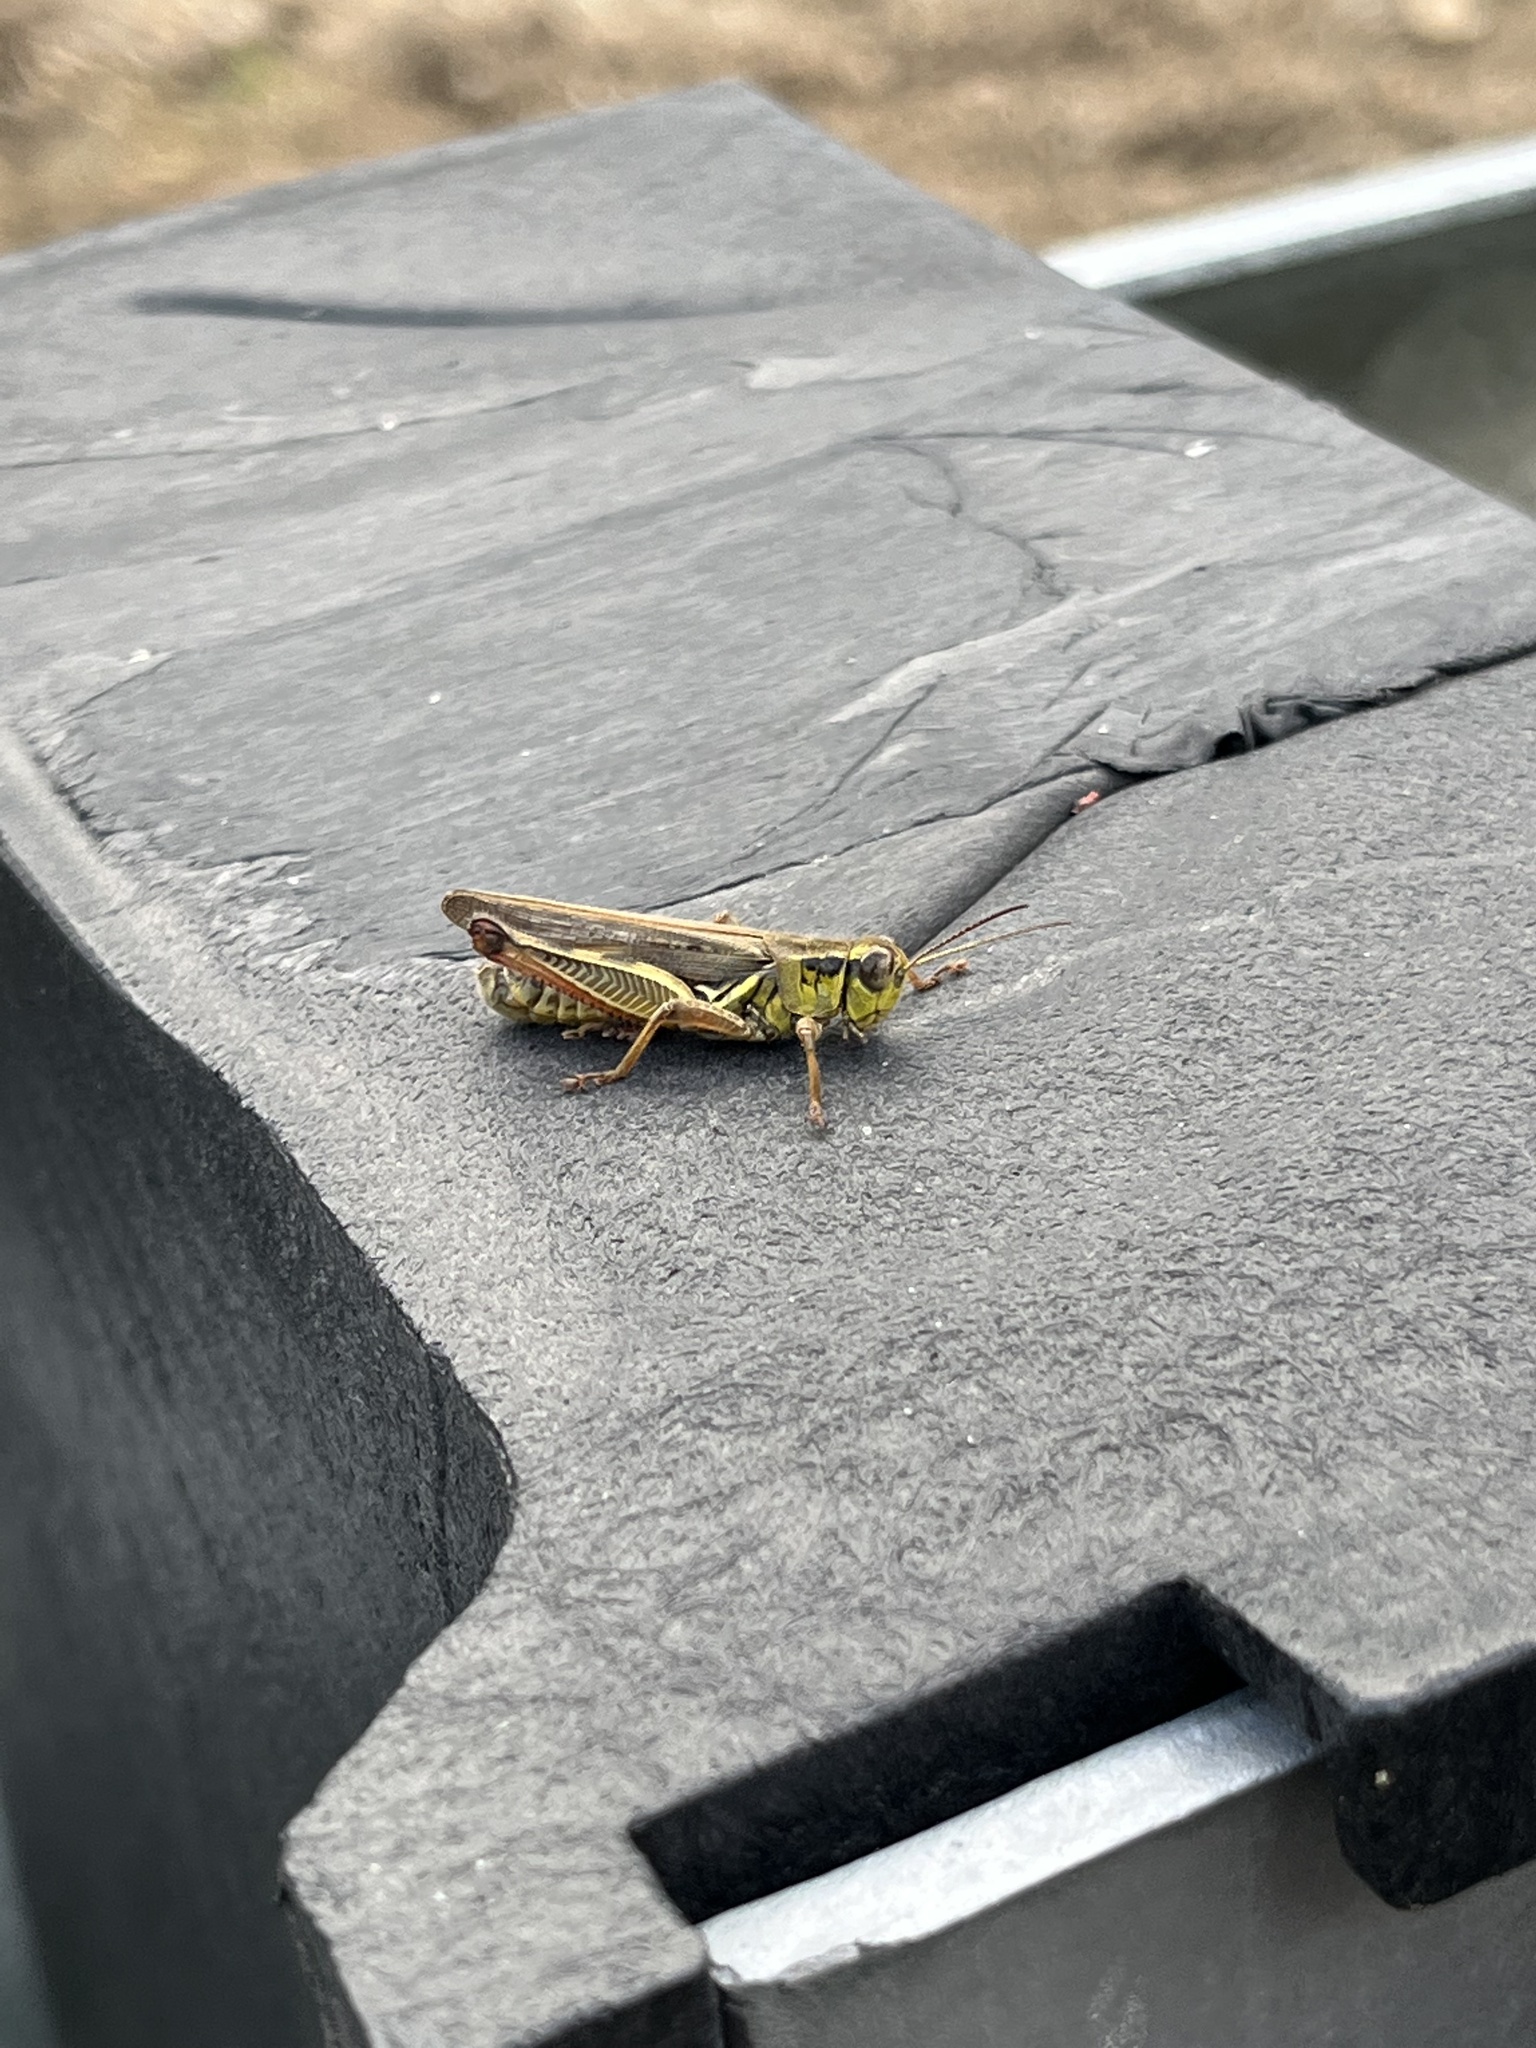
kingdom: Animalia
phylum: Arthropoda
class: Insecta
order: Orthoptera
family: Acrididae
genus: Melanoplus
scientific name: Melanoplus femurrubrum
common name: Red-legged grasshopper
